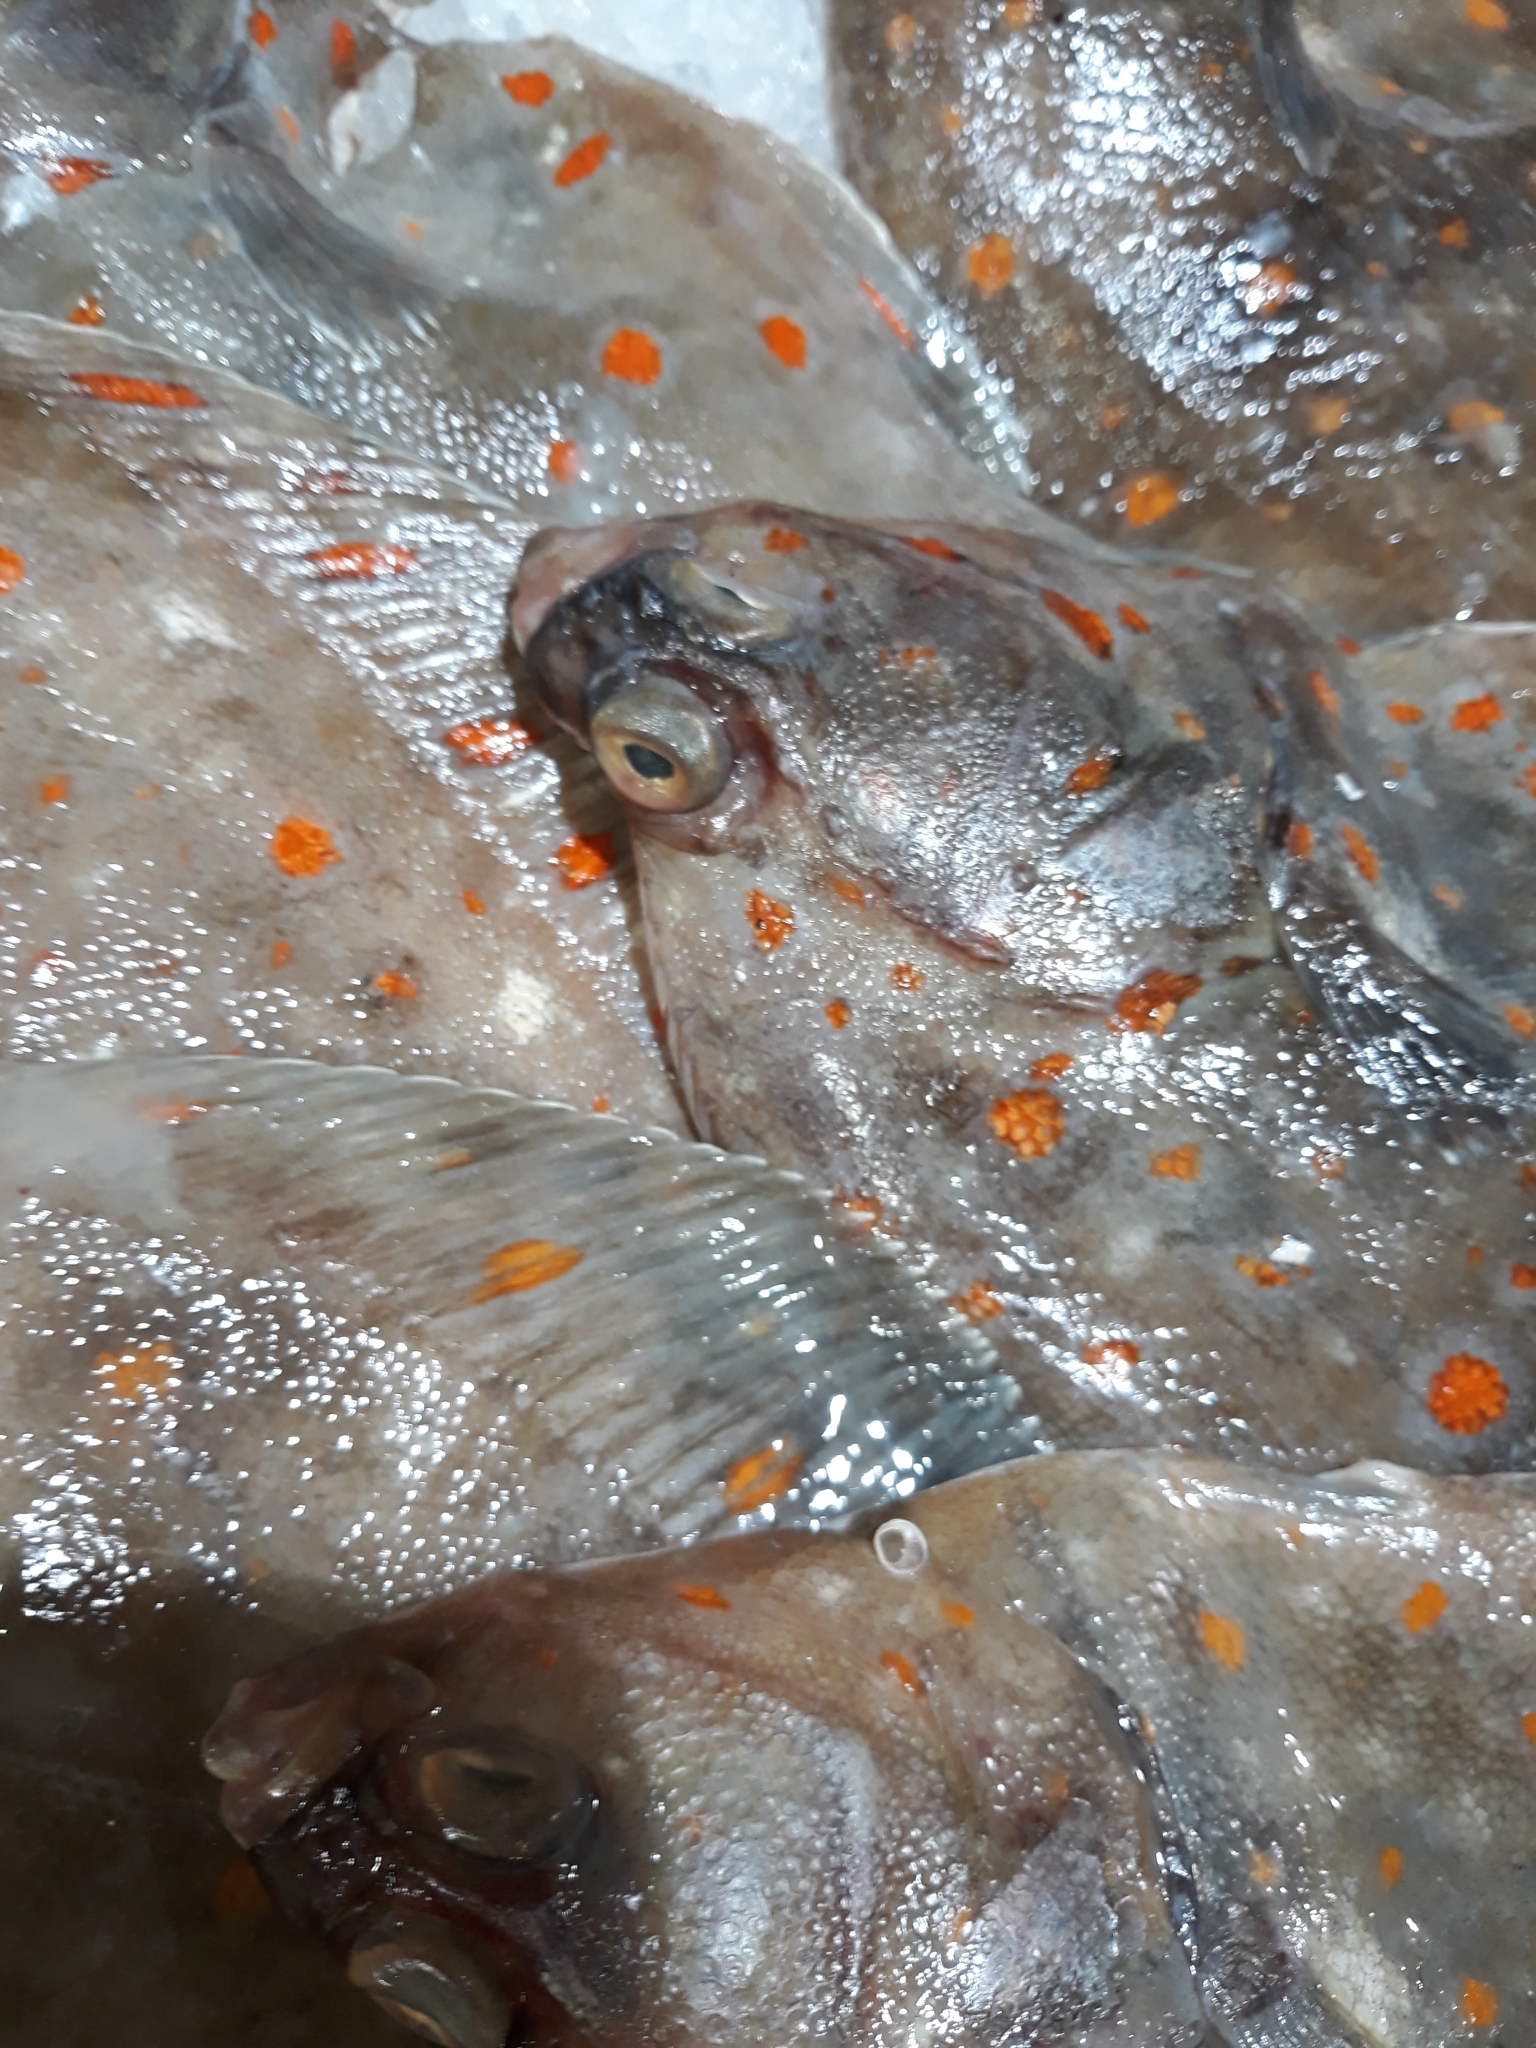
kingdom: Animalia
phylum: Chordata
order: Pleuronectiformes
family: Pleuronectidae
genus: Pleuronectes
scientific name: Pleuronectes platessa
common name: Plaice
